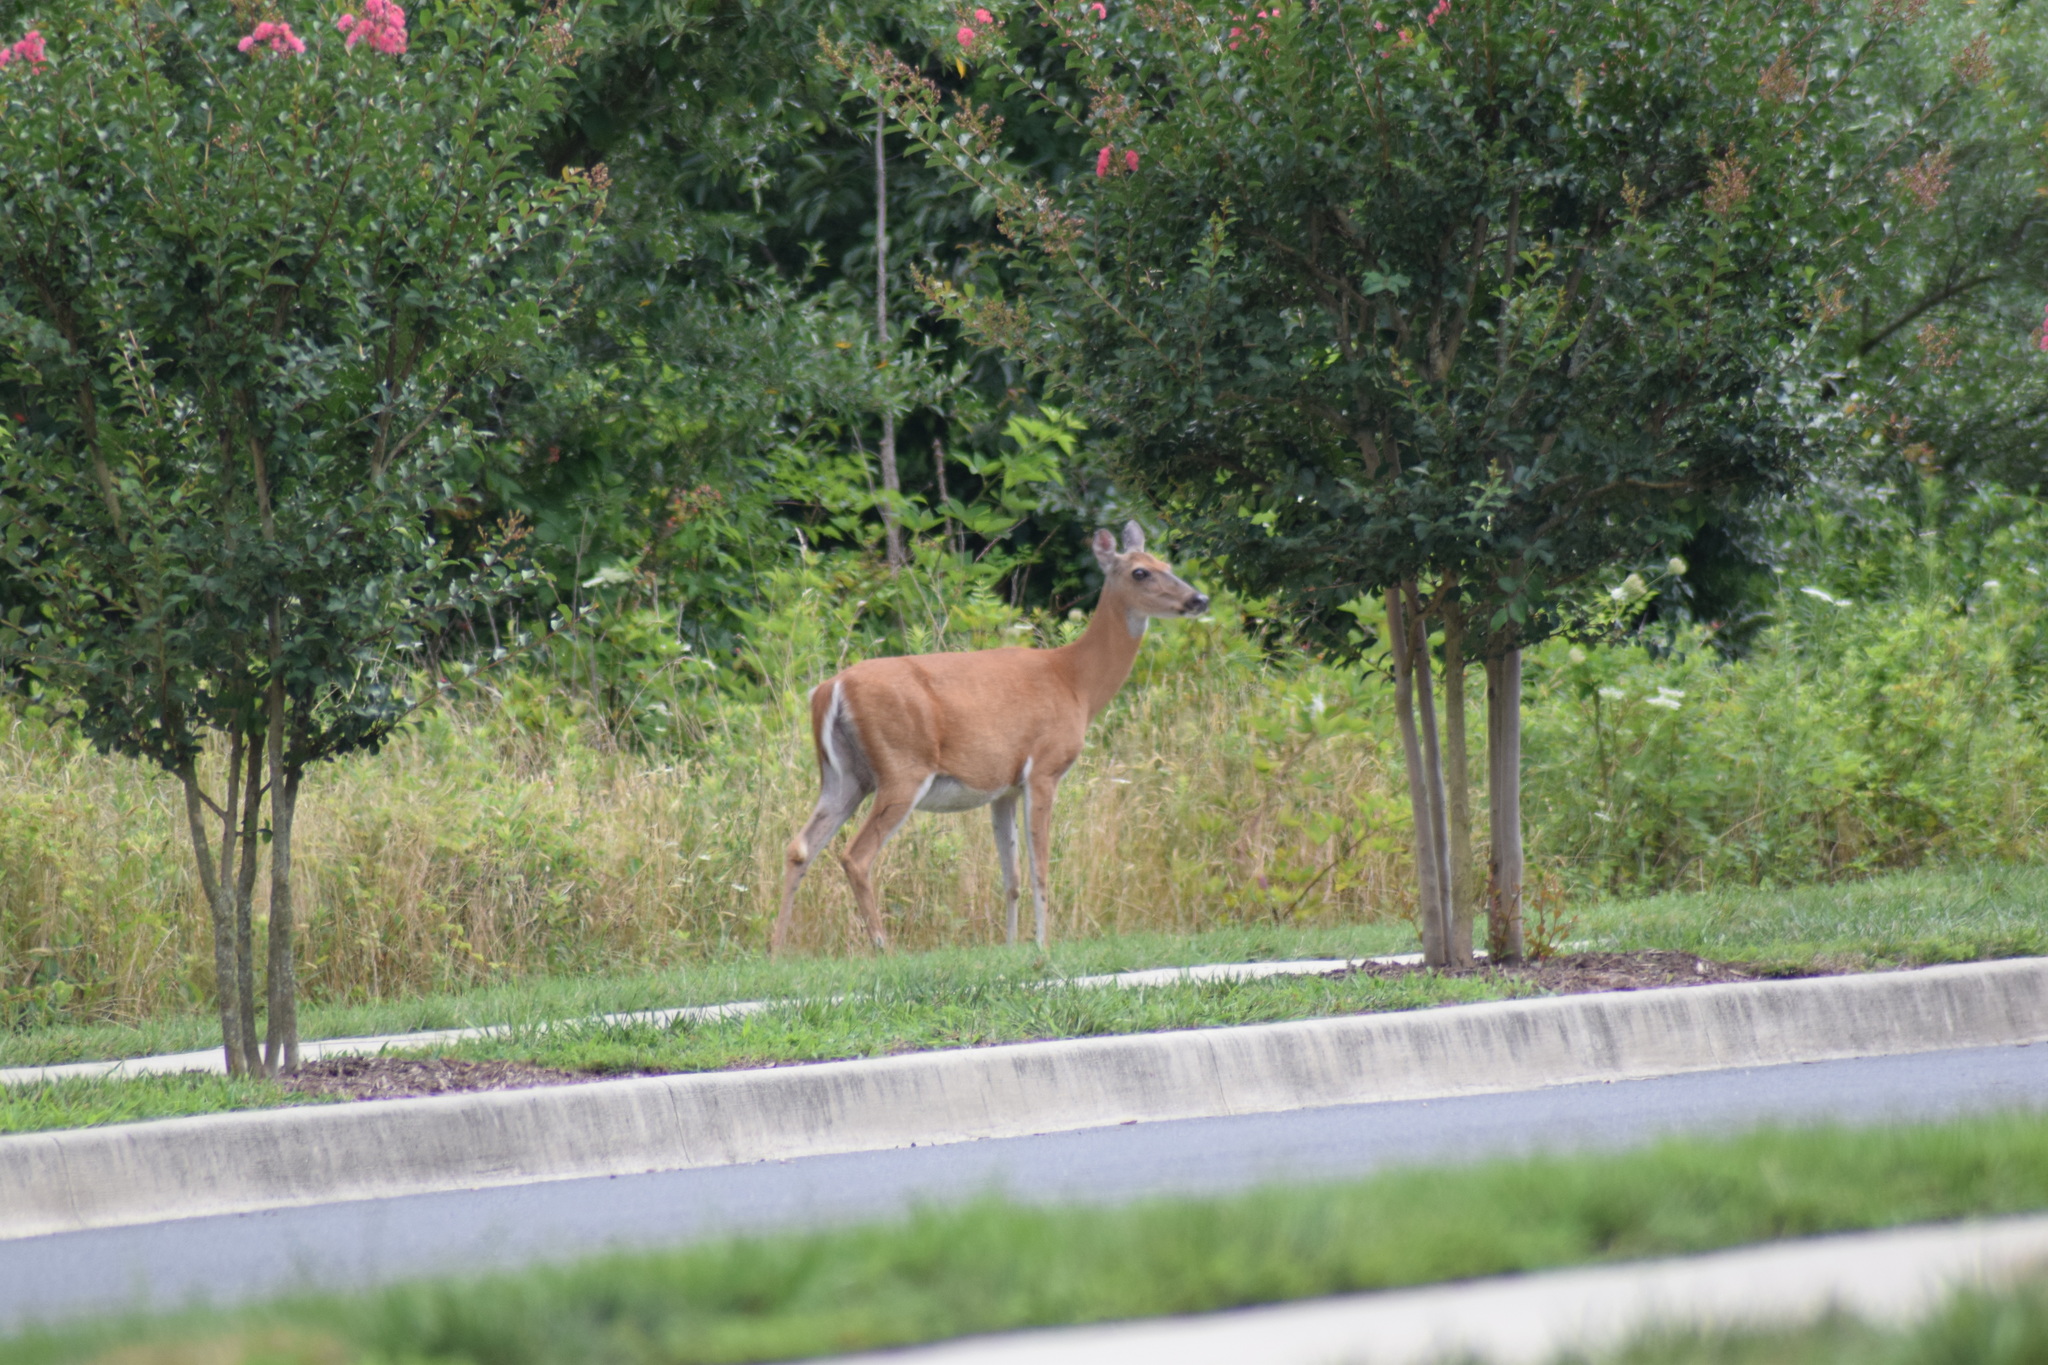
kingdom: Animalia
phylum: Chordata
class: Mammalia
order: Artiodactyla
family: Cervidae
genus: Odocoileus
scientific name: Odocoileus virginianus
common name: White-tailed deer
